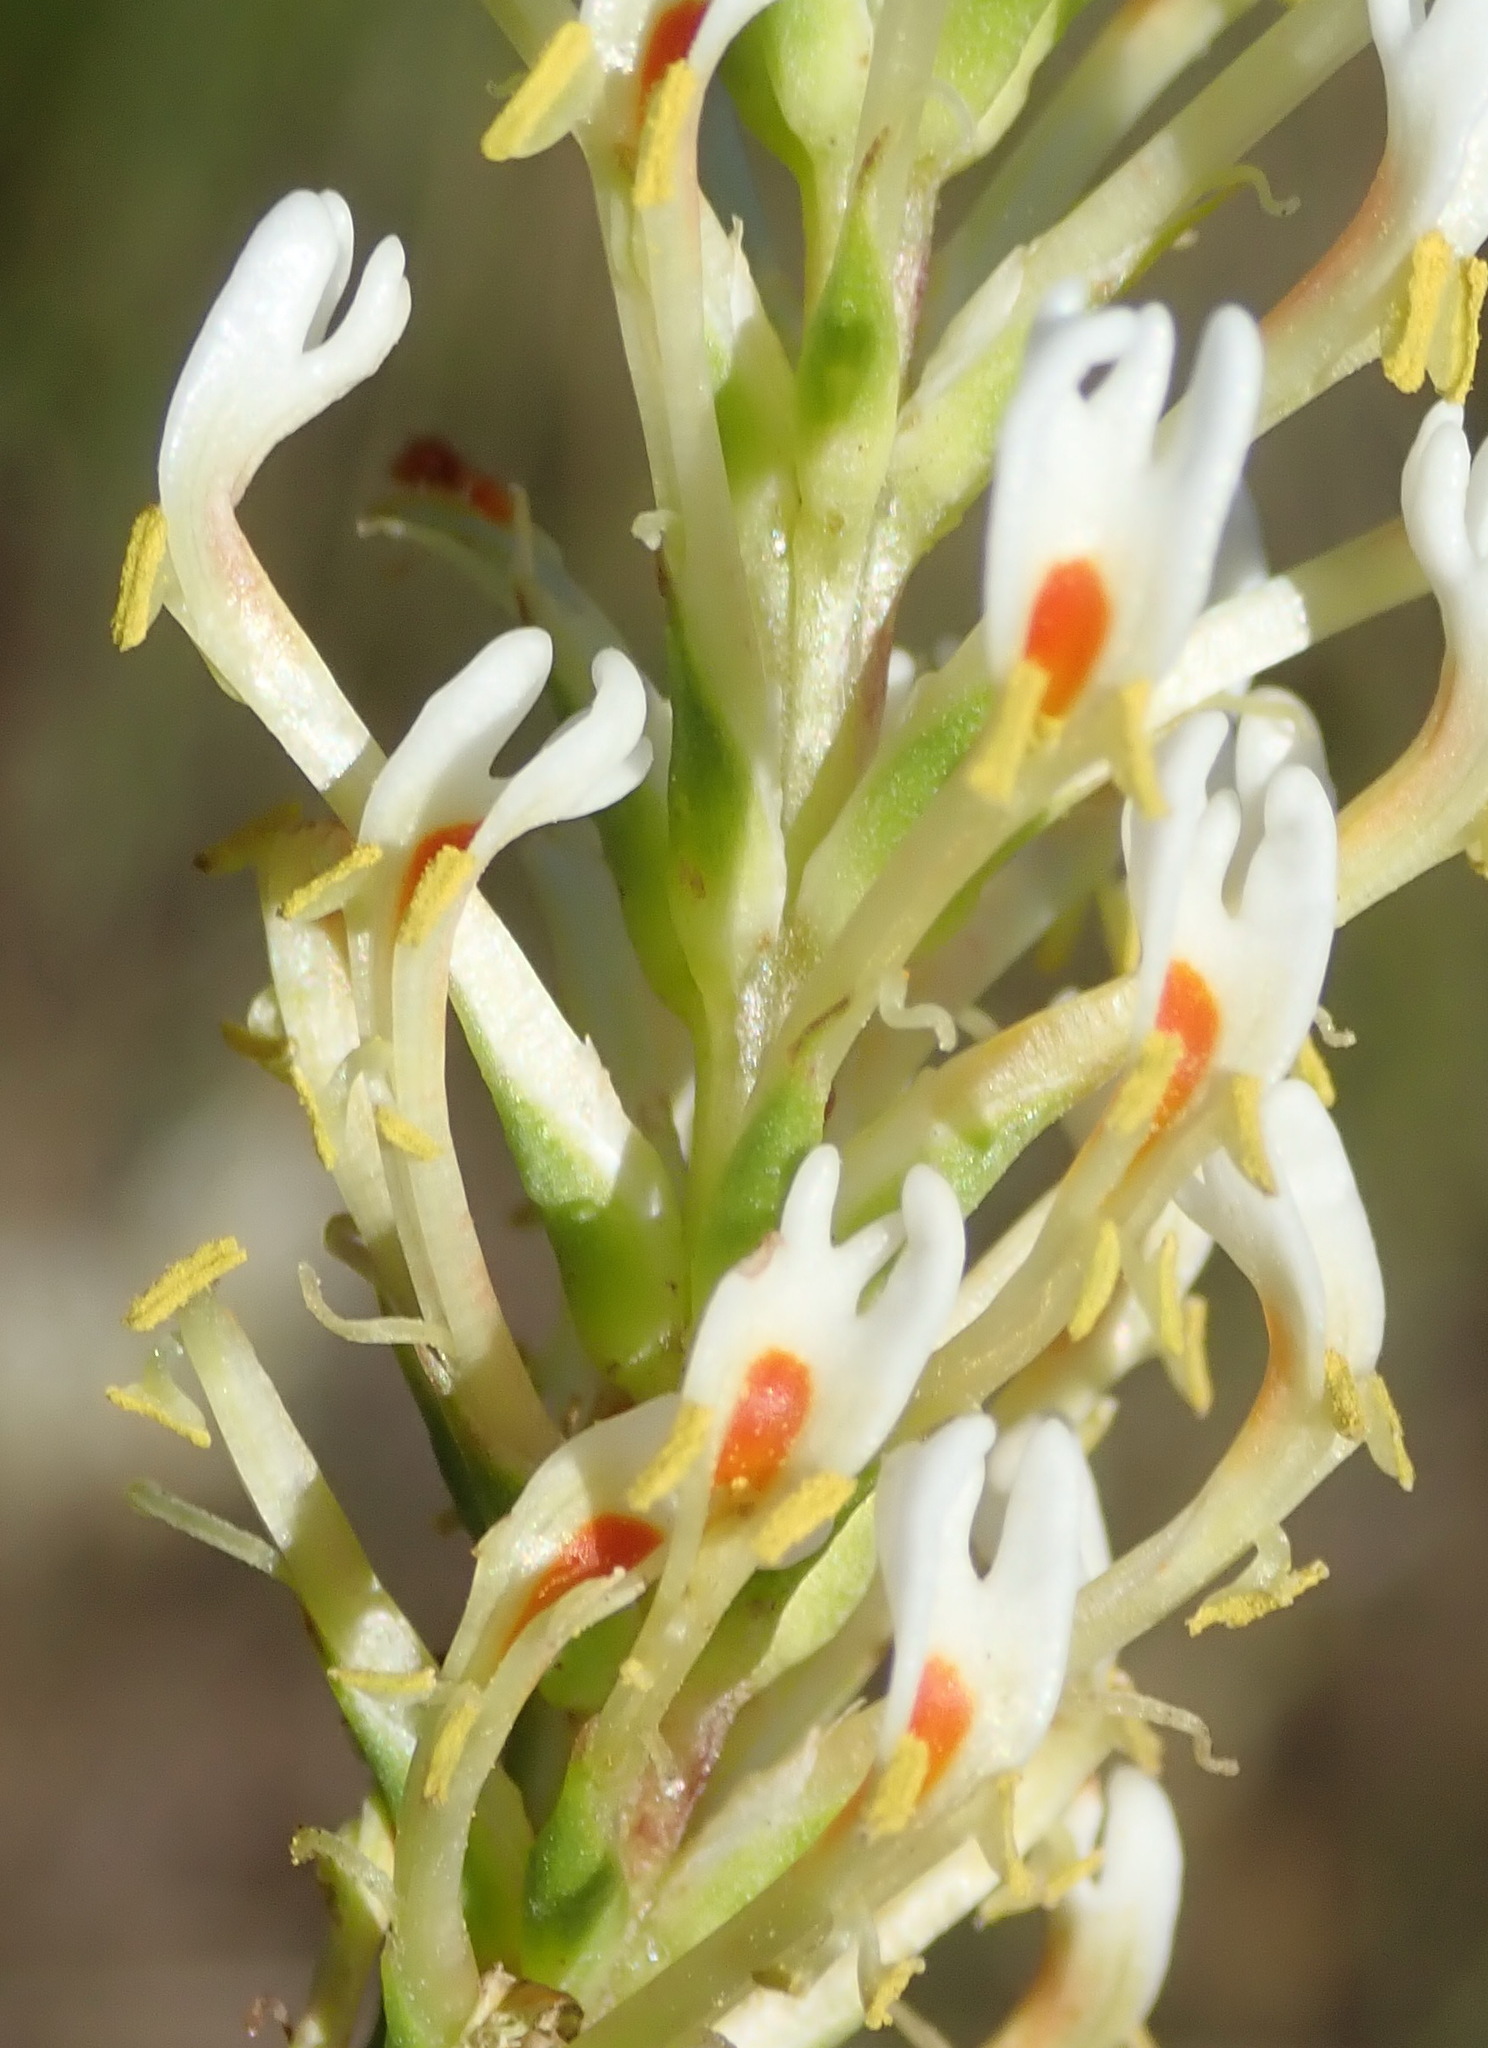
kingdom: Plantae
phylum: Tracheophyta
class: Magnoliopsida
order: Lamiales
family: Scrophulariaceae
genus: Hebenstretia
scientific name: Hebenstretia integrifolia
